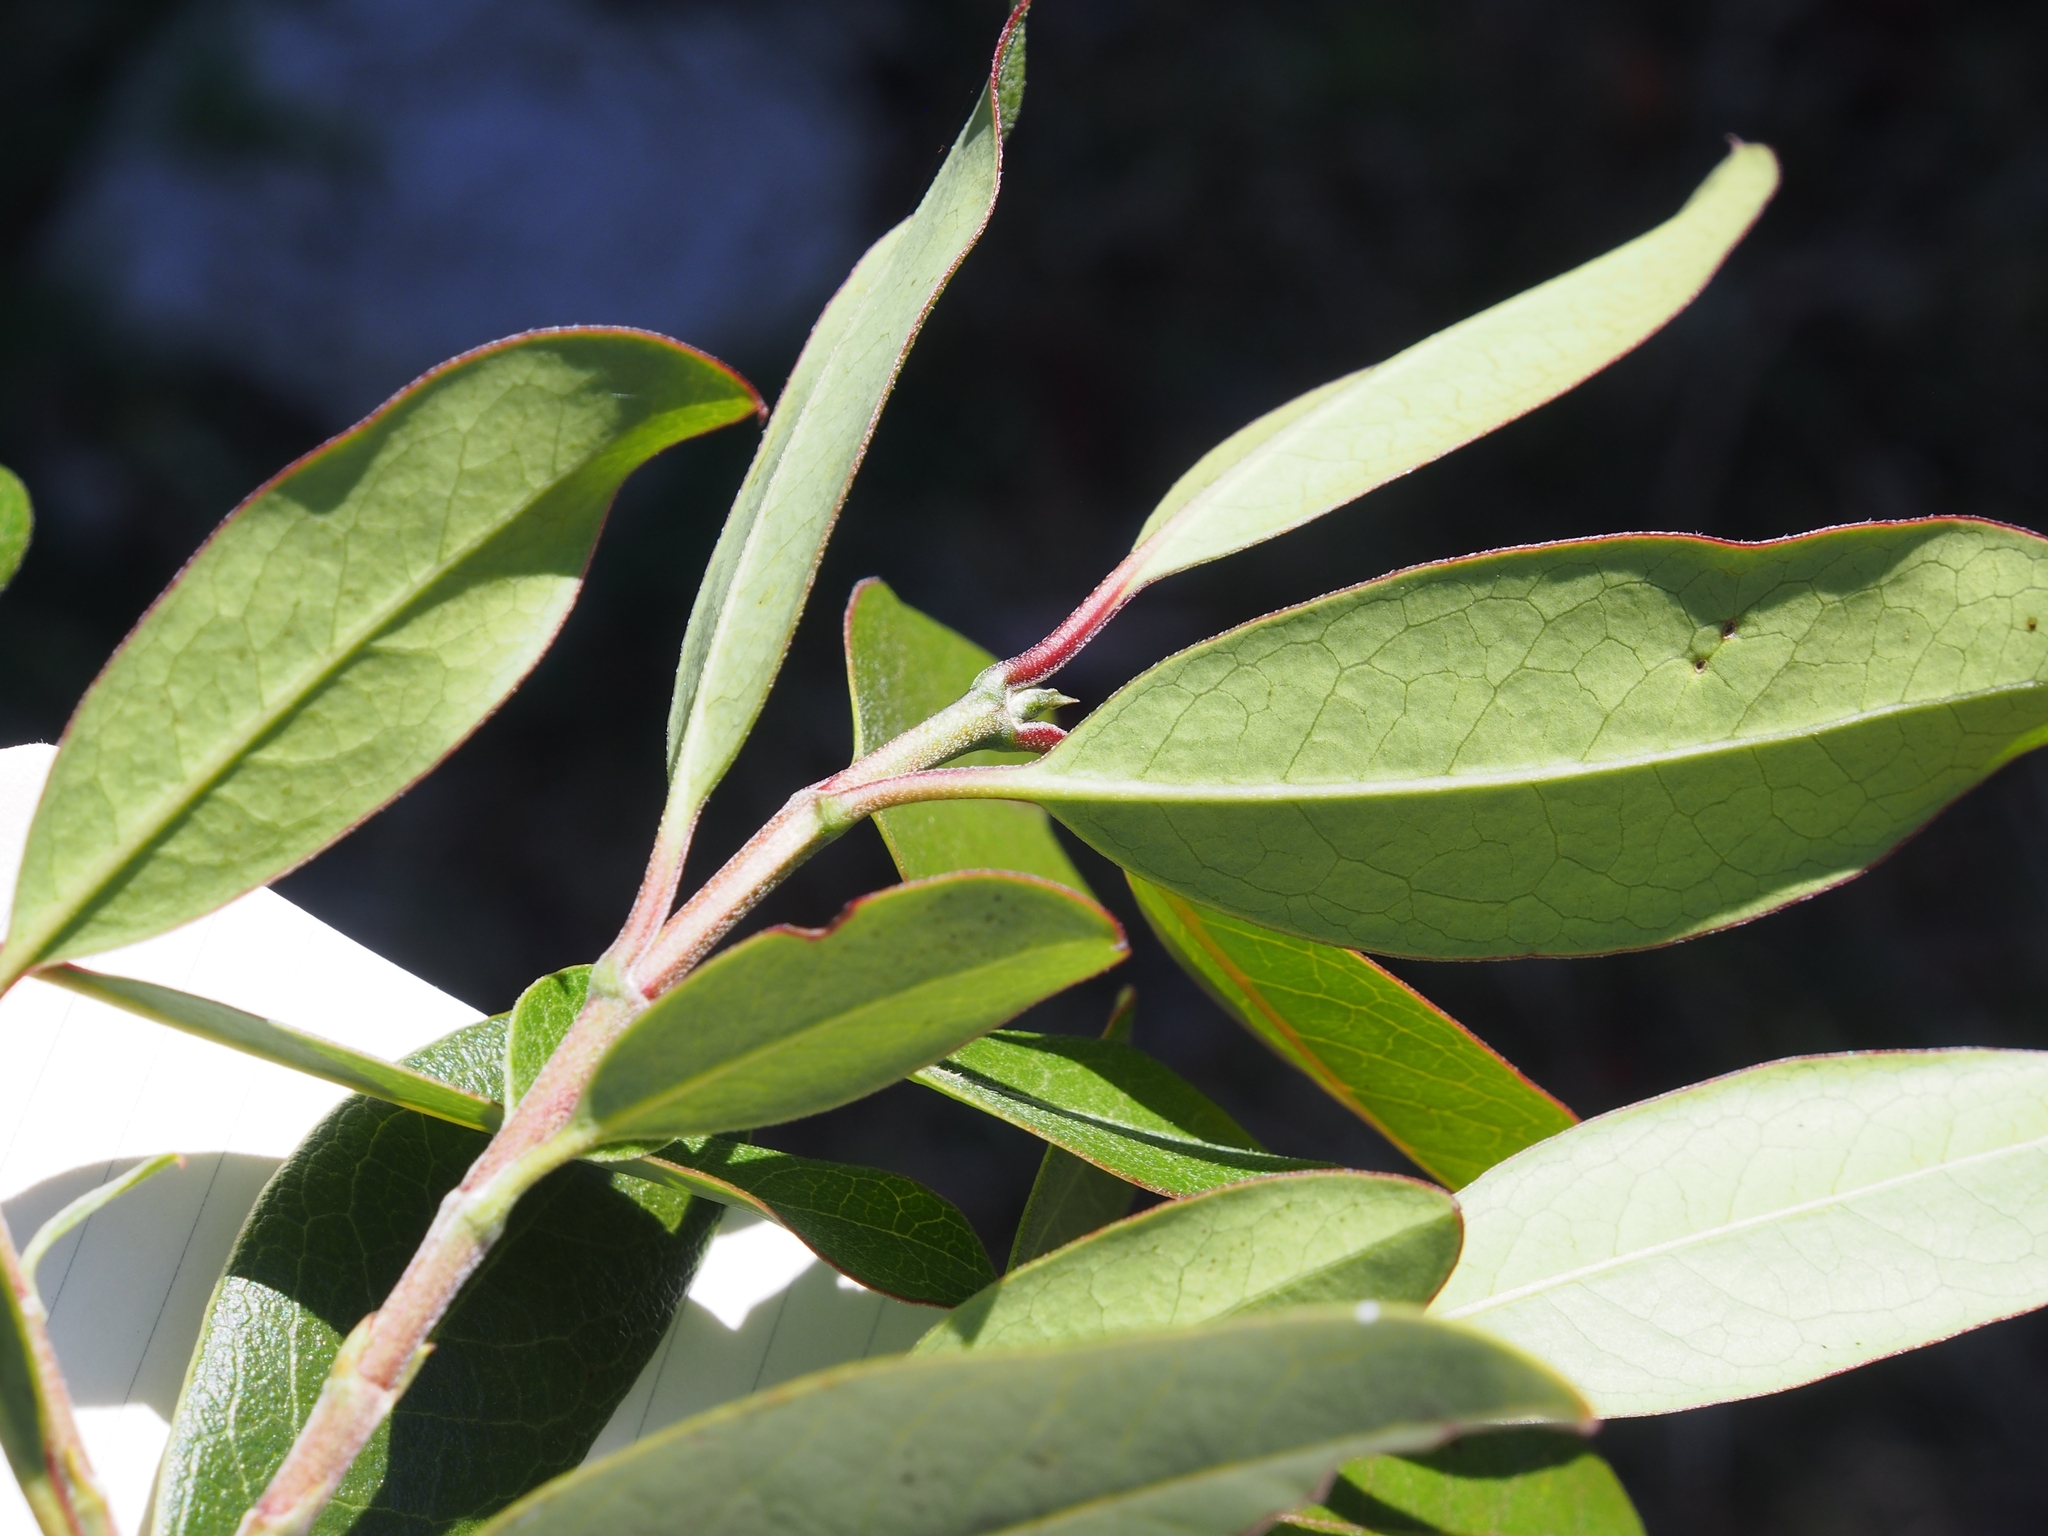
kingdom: Plantae
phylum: Tracheophyta
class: Magnoliopsida
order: Garryales
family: Garryaceae
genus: Garrya
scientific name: Garrya laurifolia
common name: Cuachichic
